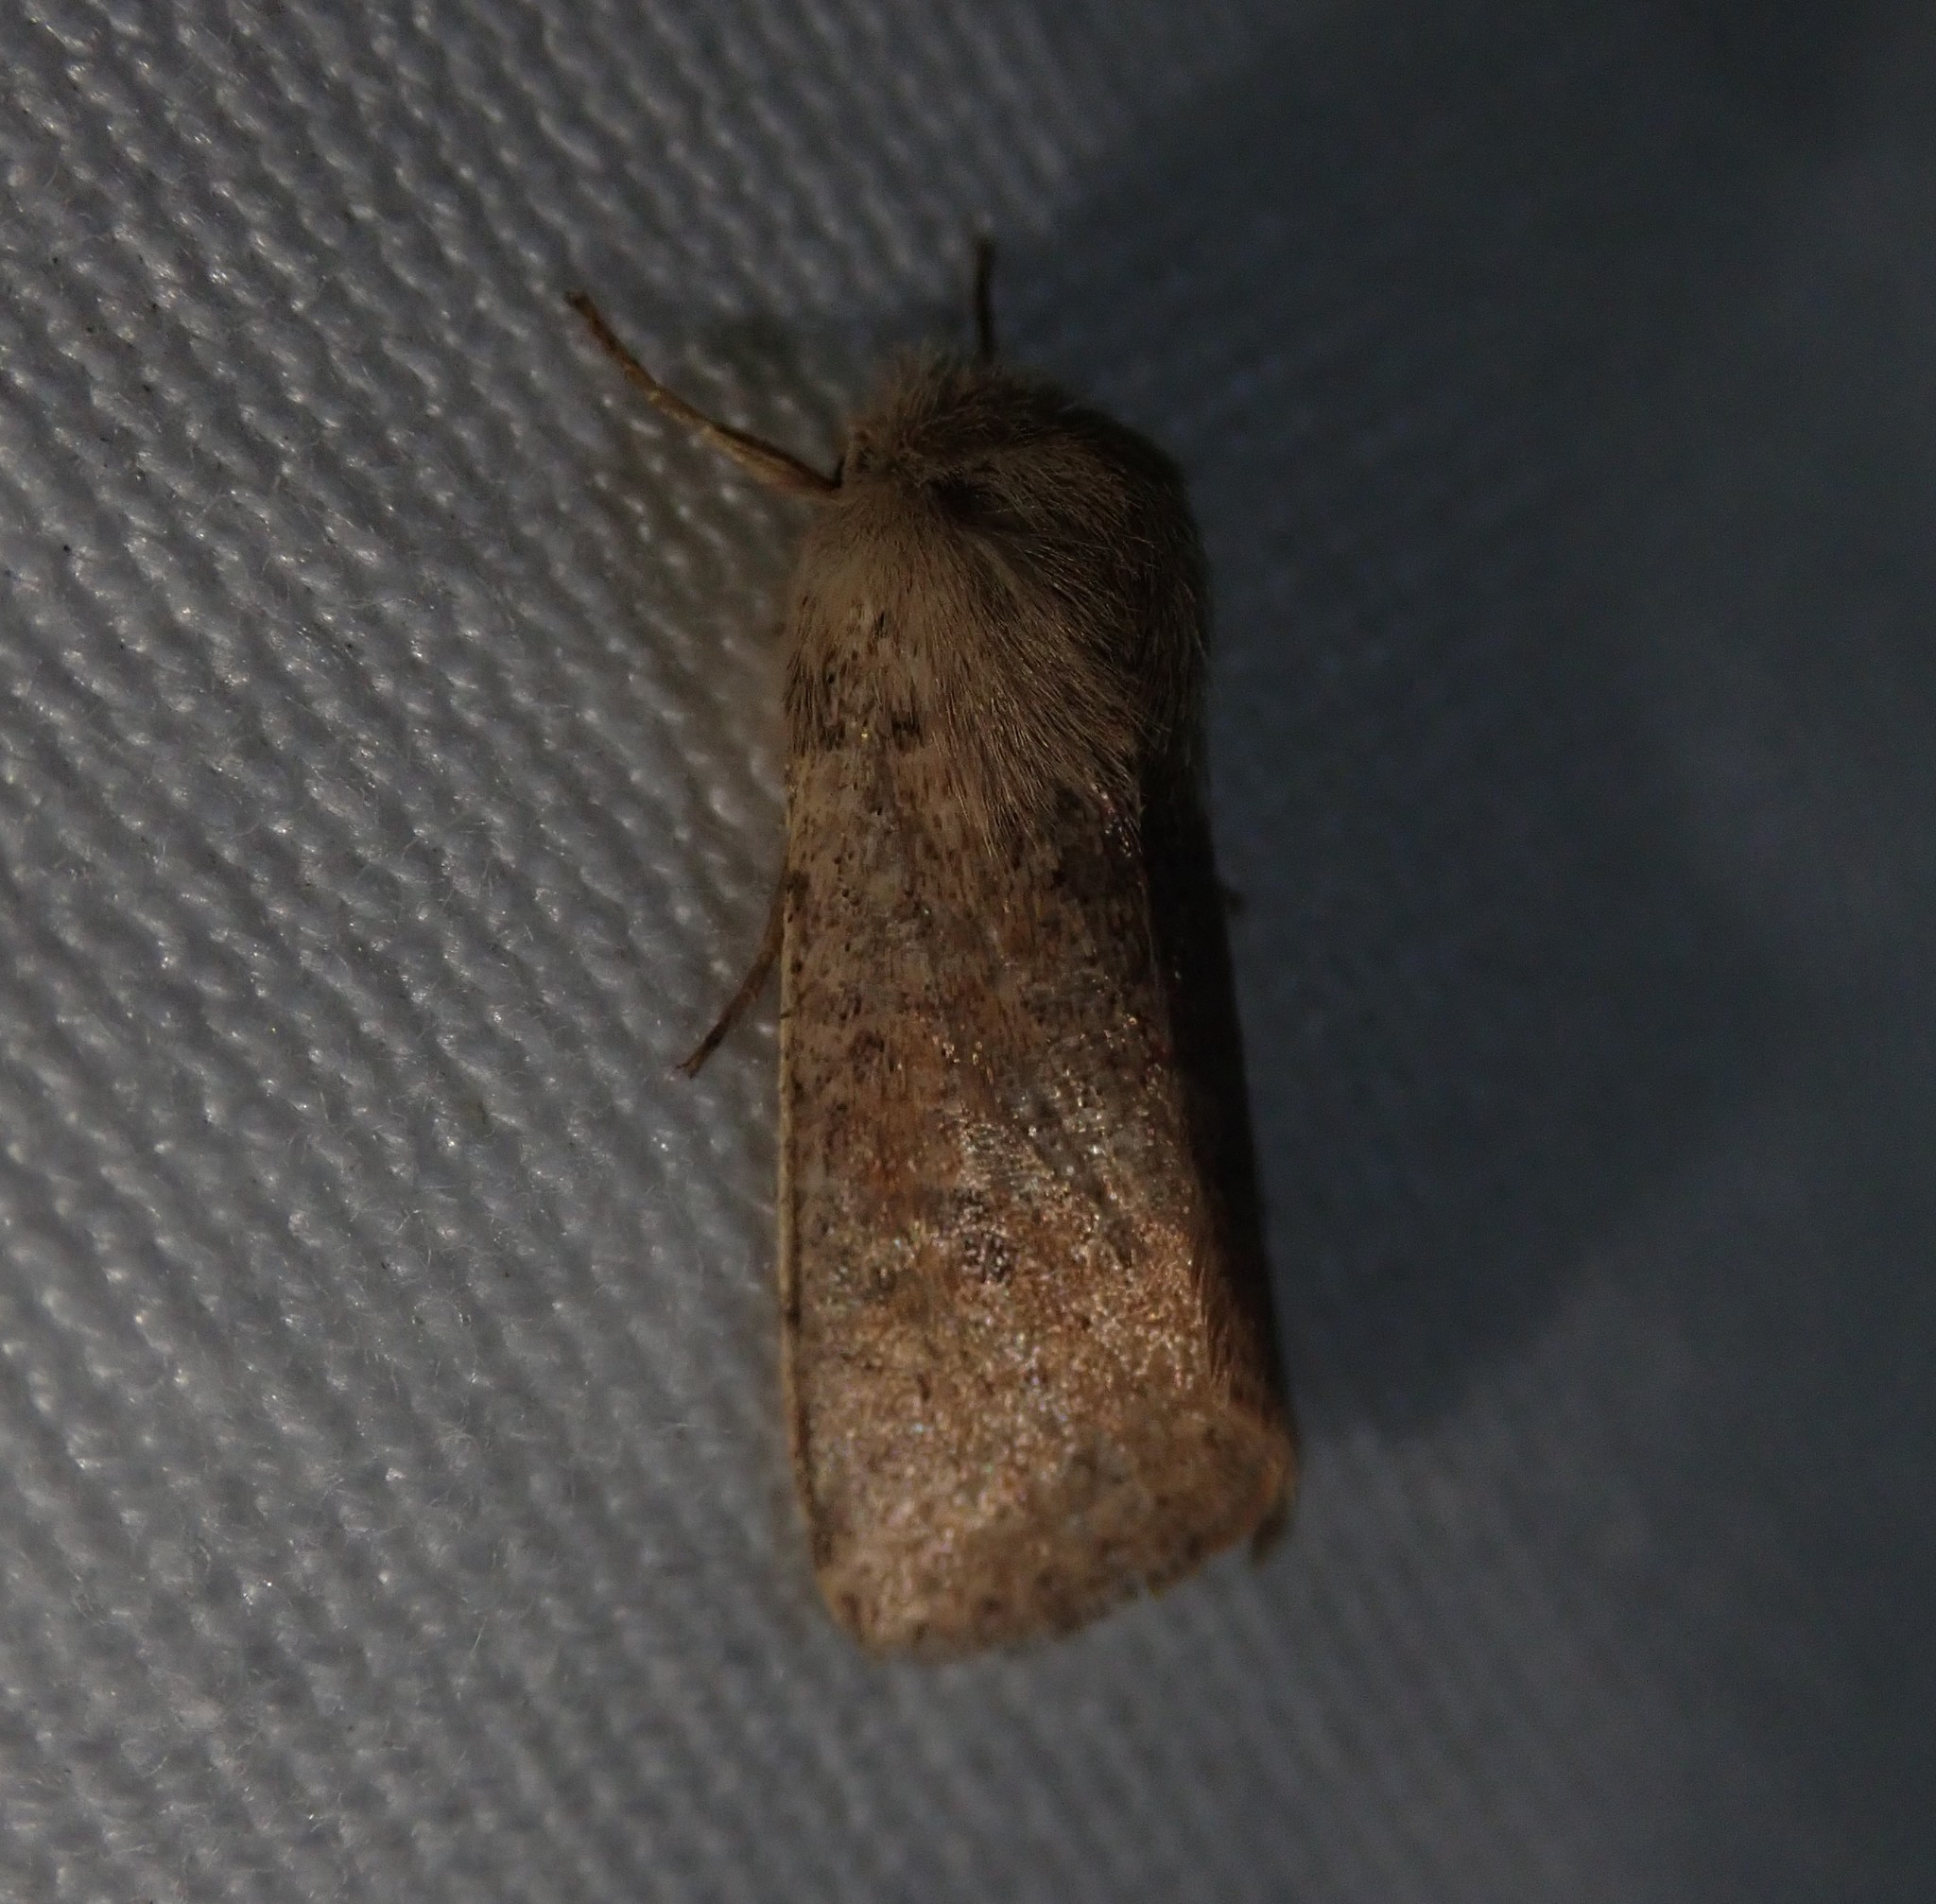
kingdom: Animalia
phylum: Arthropoda
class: Insecta
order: Lepidoptera
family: Noctuidae
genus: Orthosia
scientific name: Orthosia cruda
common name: Small quaker
